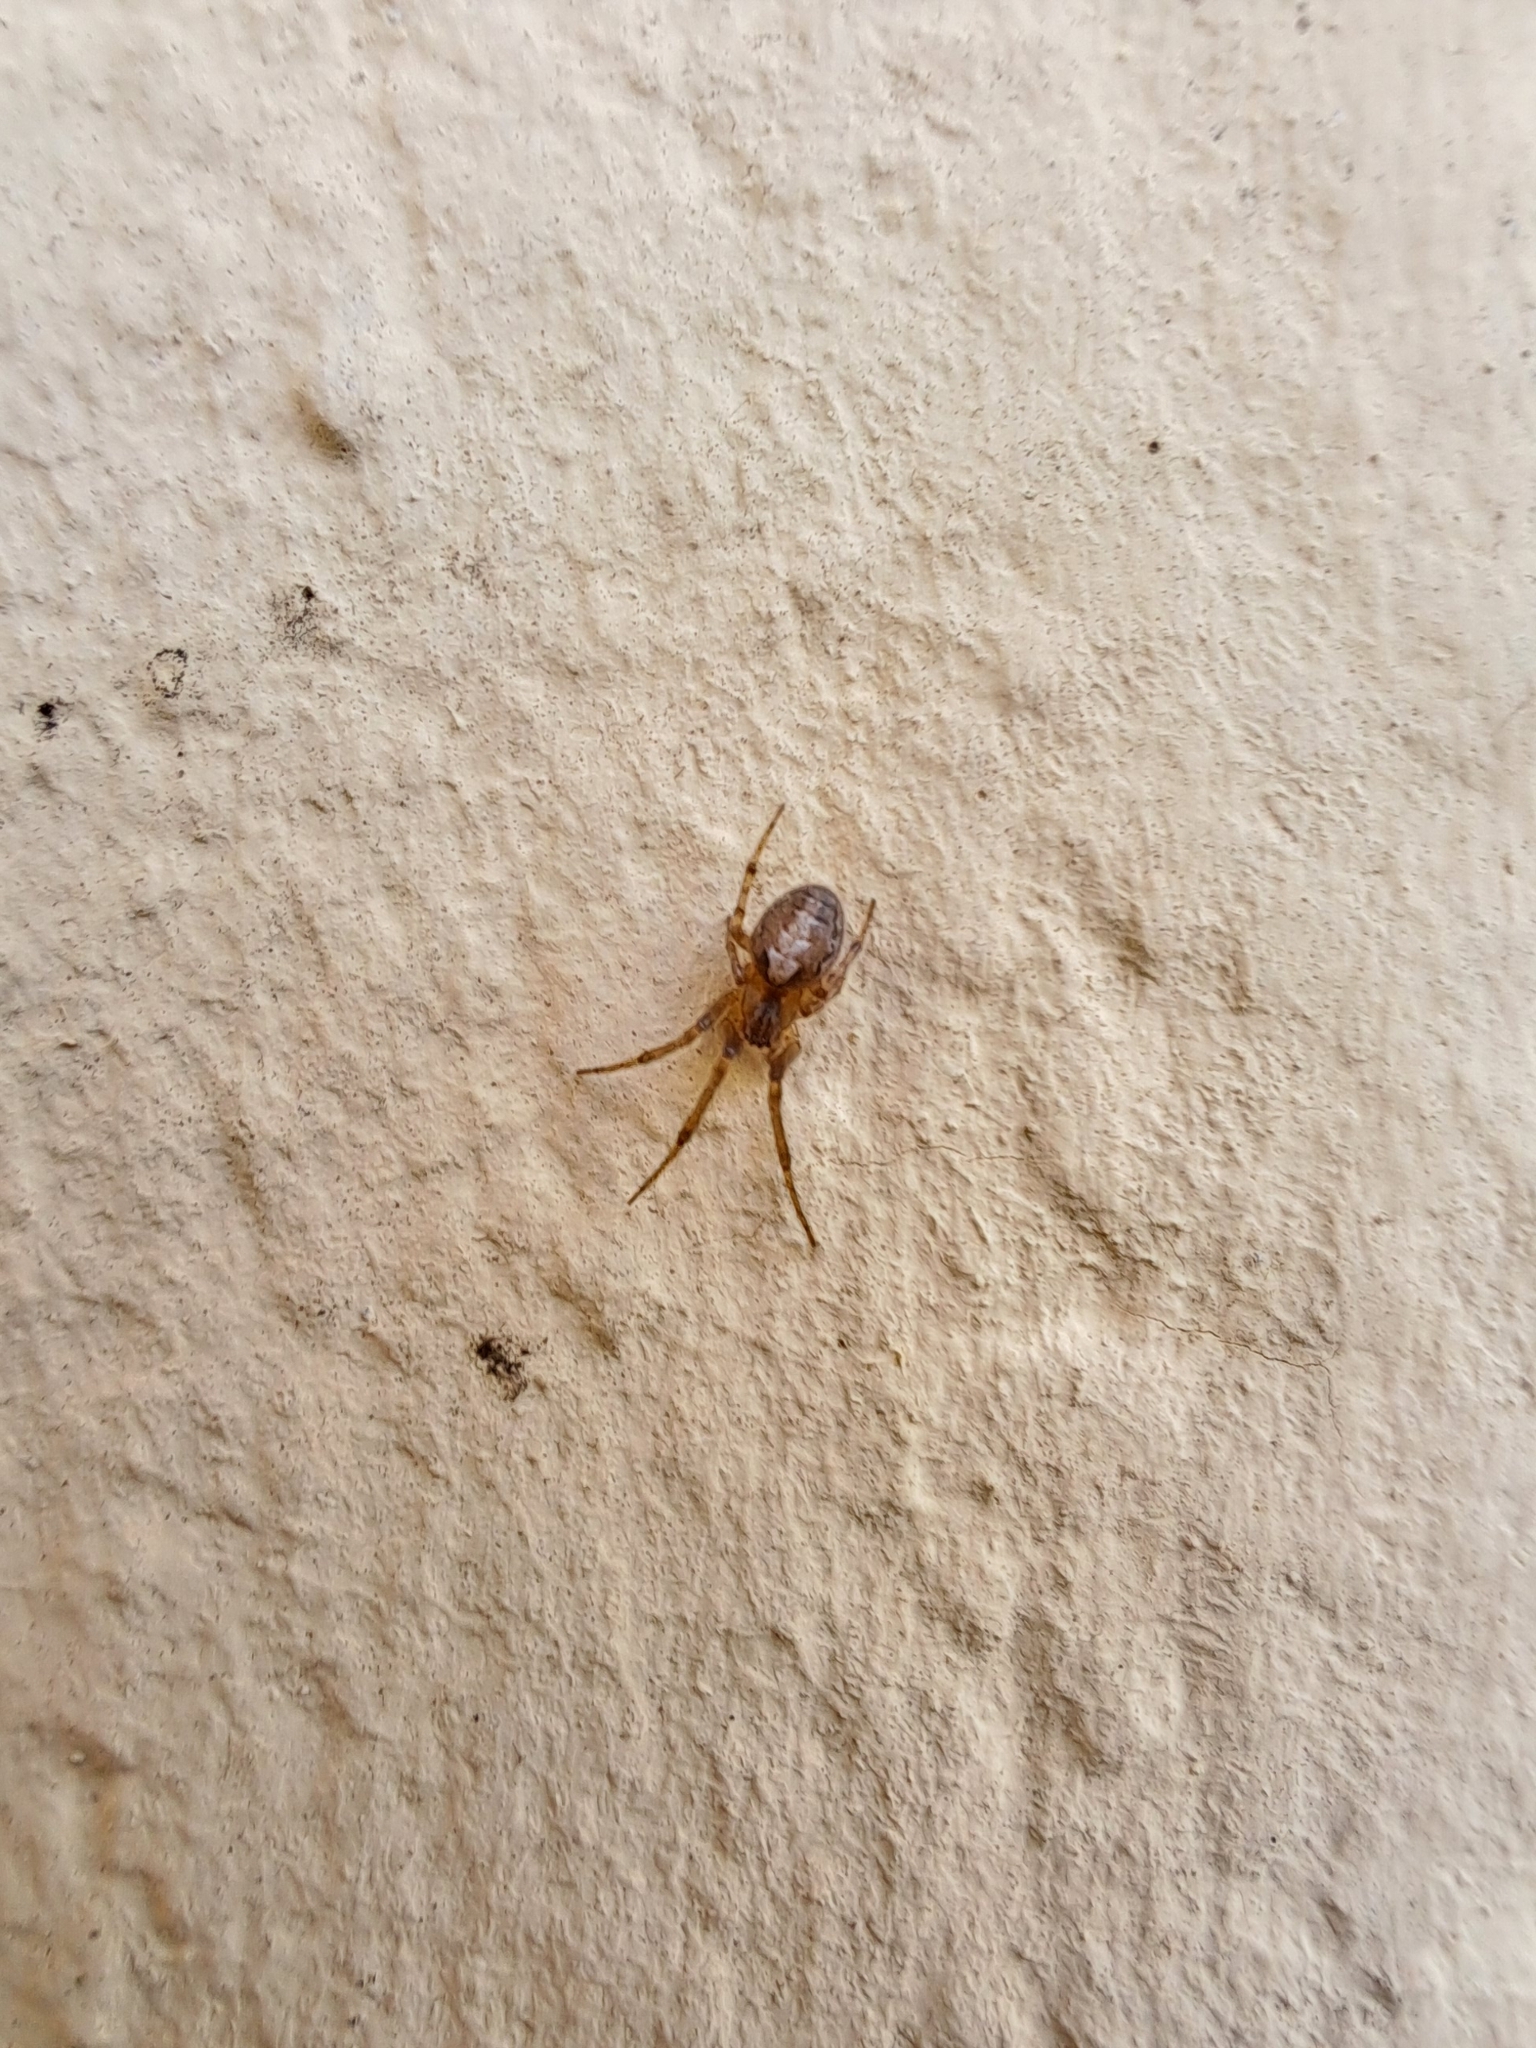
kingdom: Animalia
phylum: Arthropoda
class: Arachnida
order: Araneae
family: Araneidae
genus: Zygiella
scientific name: Zygiella x-notata
